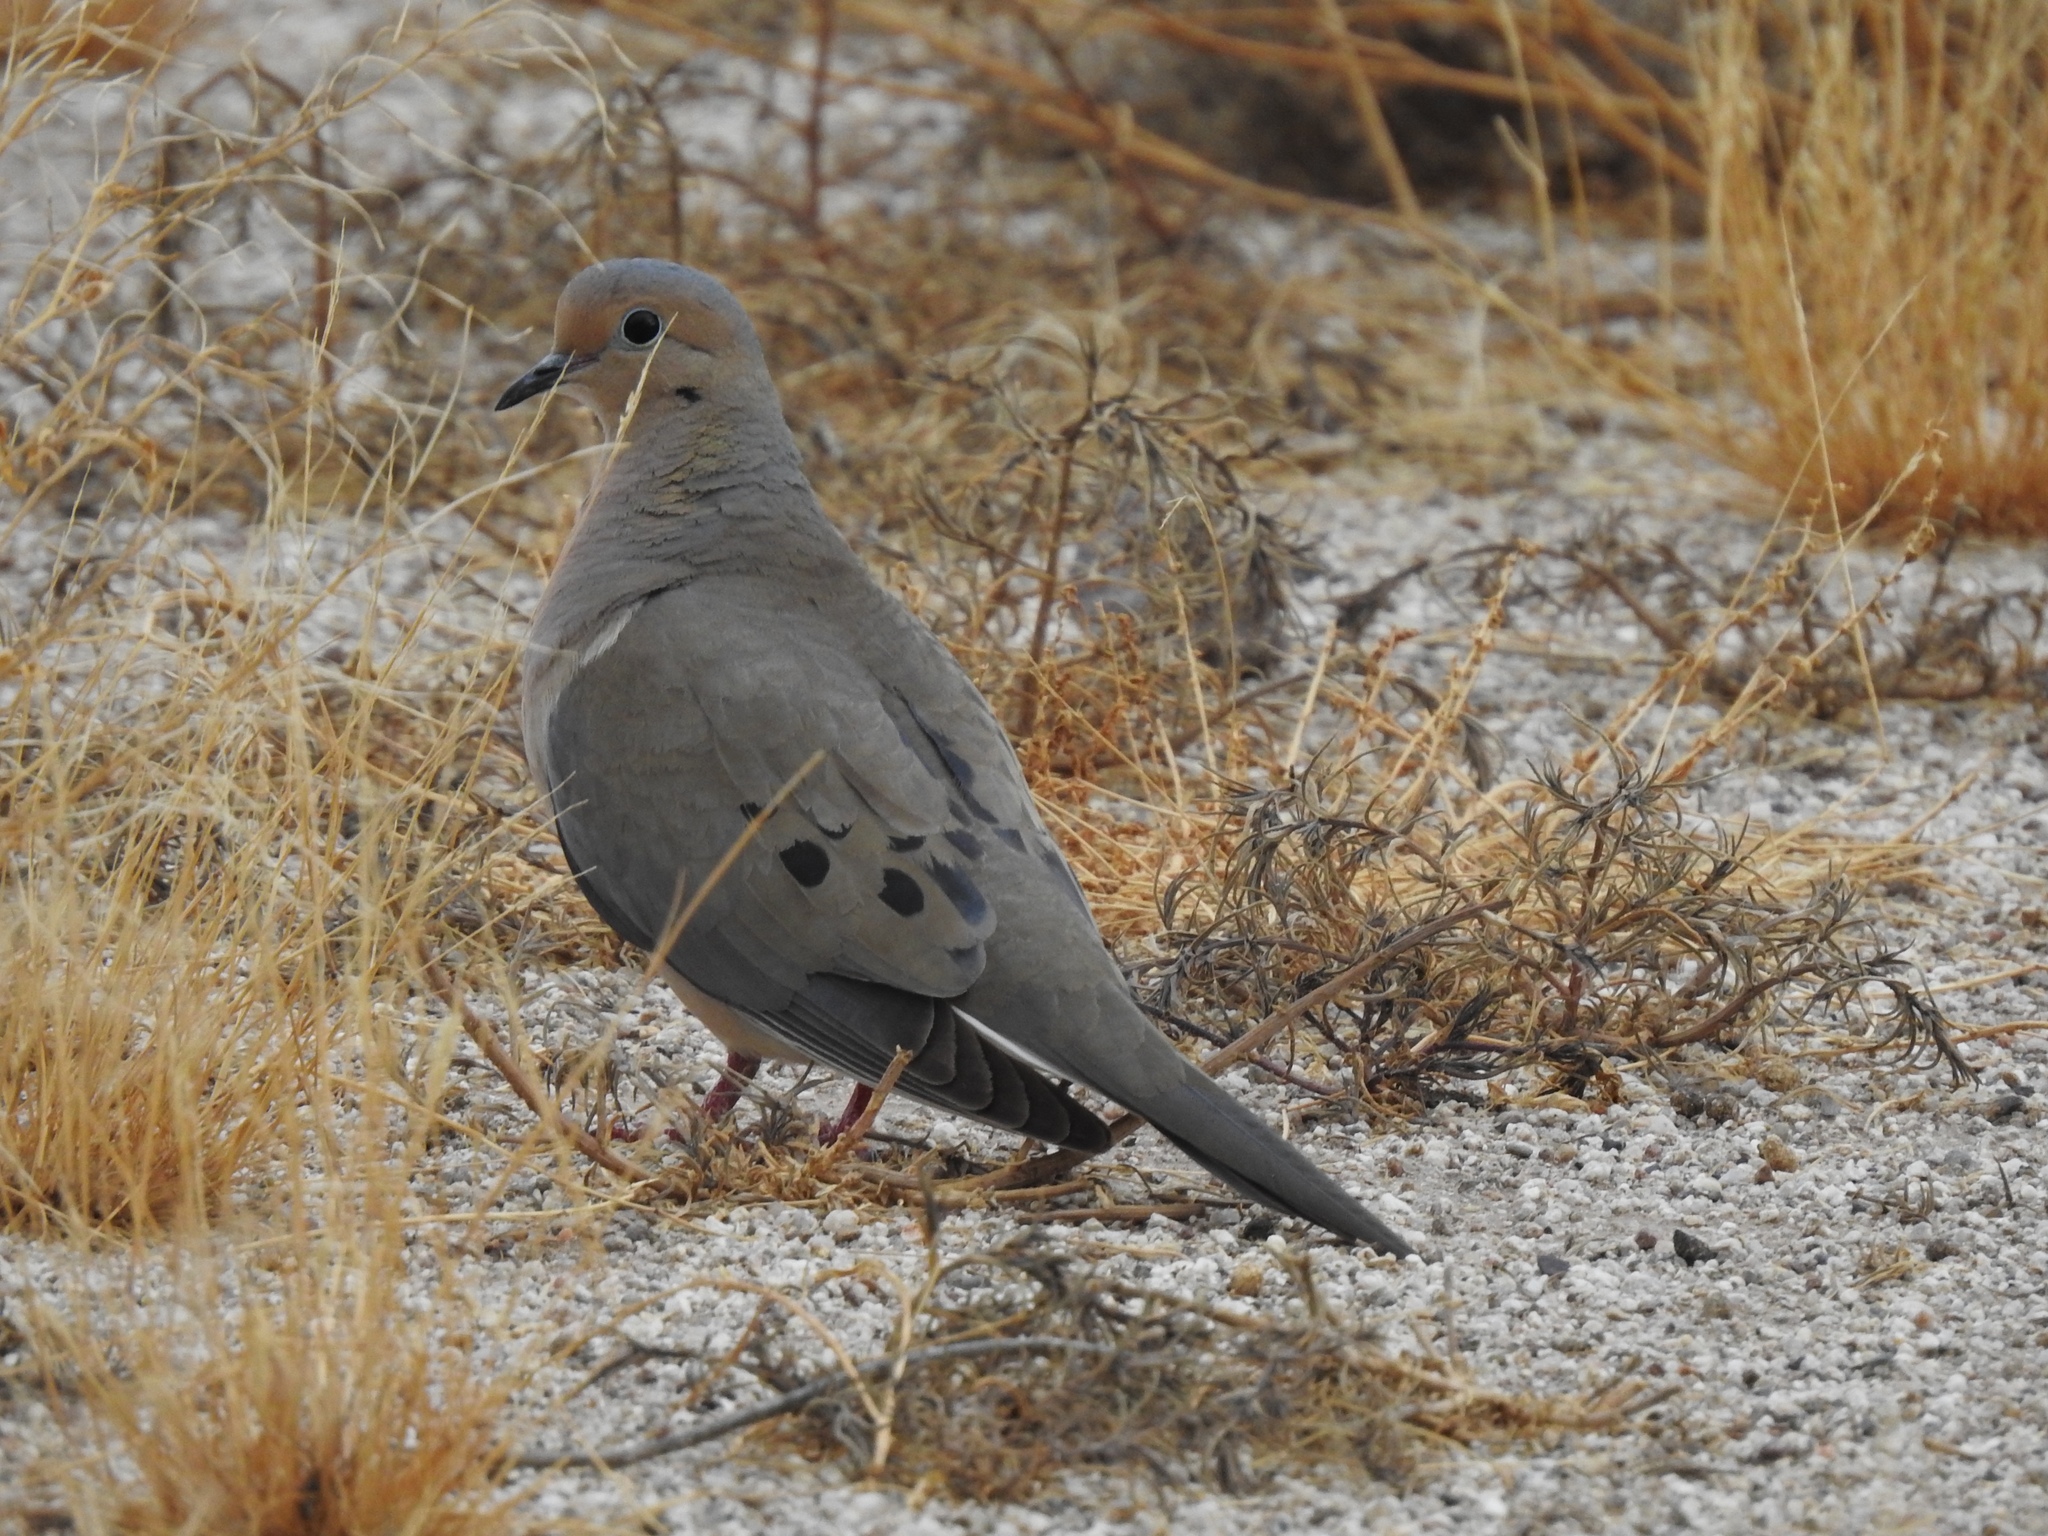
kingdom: Animalia
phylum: Chordata
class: Aves
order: Columbiformes
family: Columbidae
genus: Zenaida
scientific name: Zenaida macroura
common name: Mourning dove
